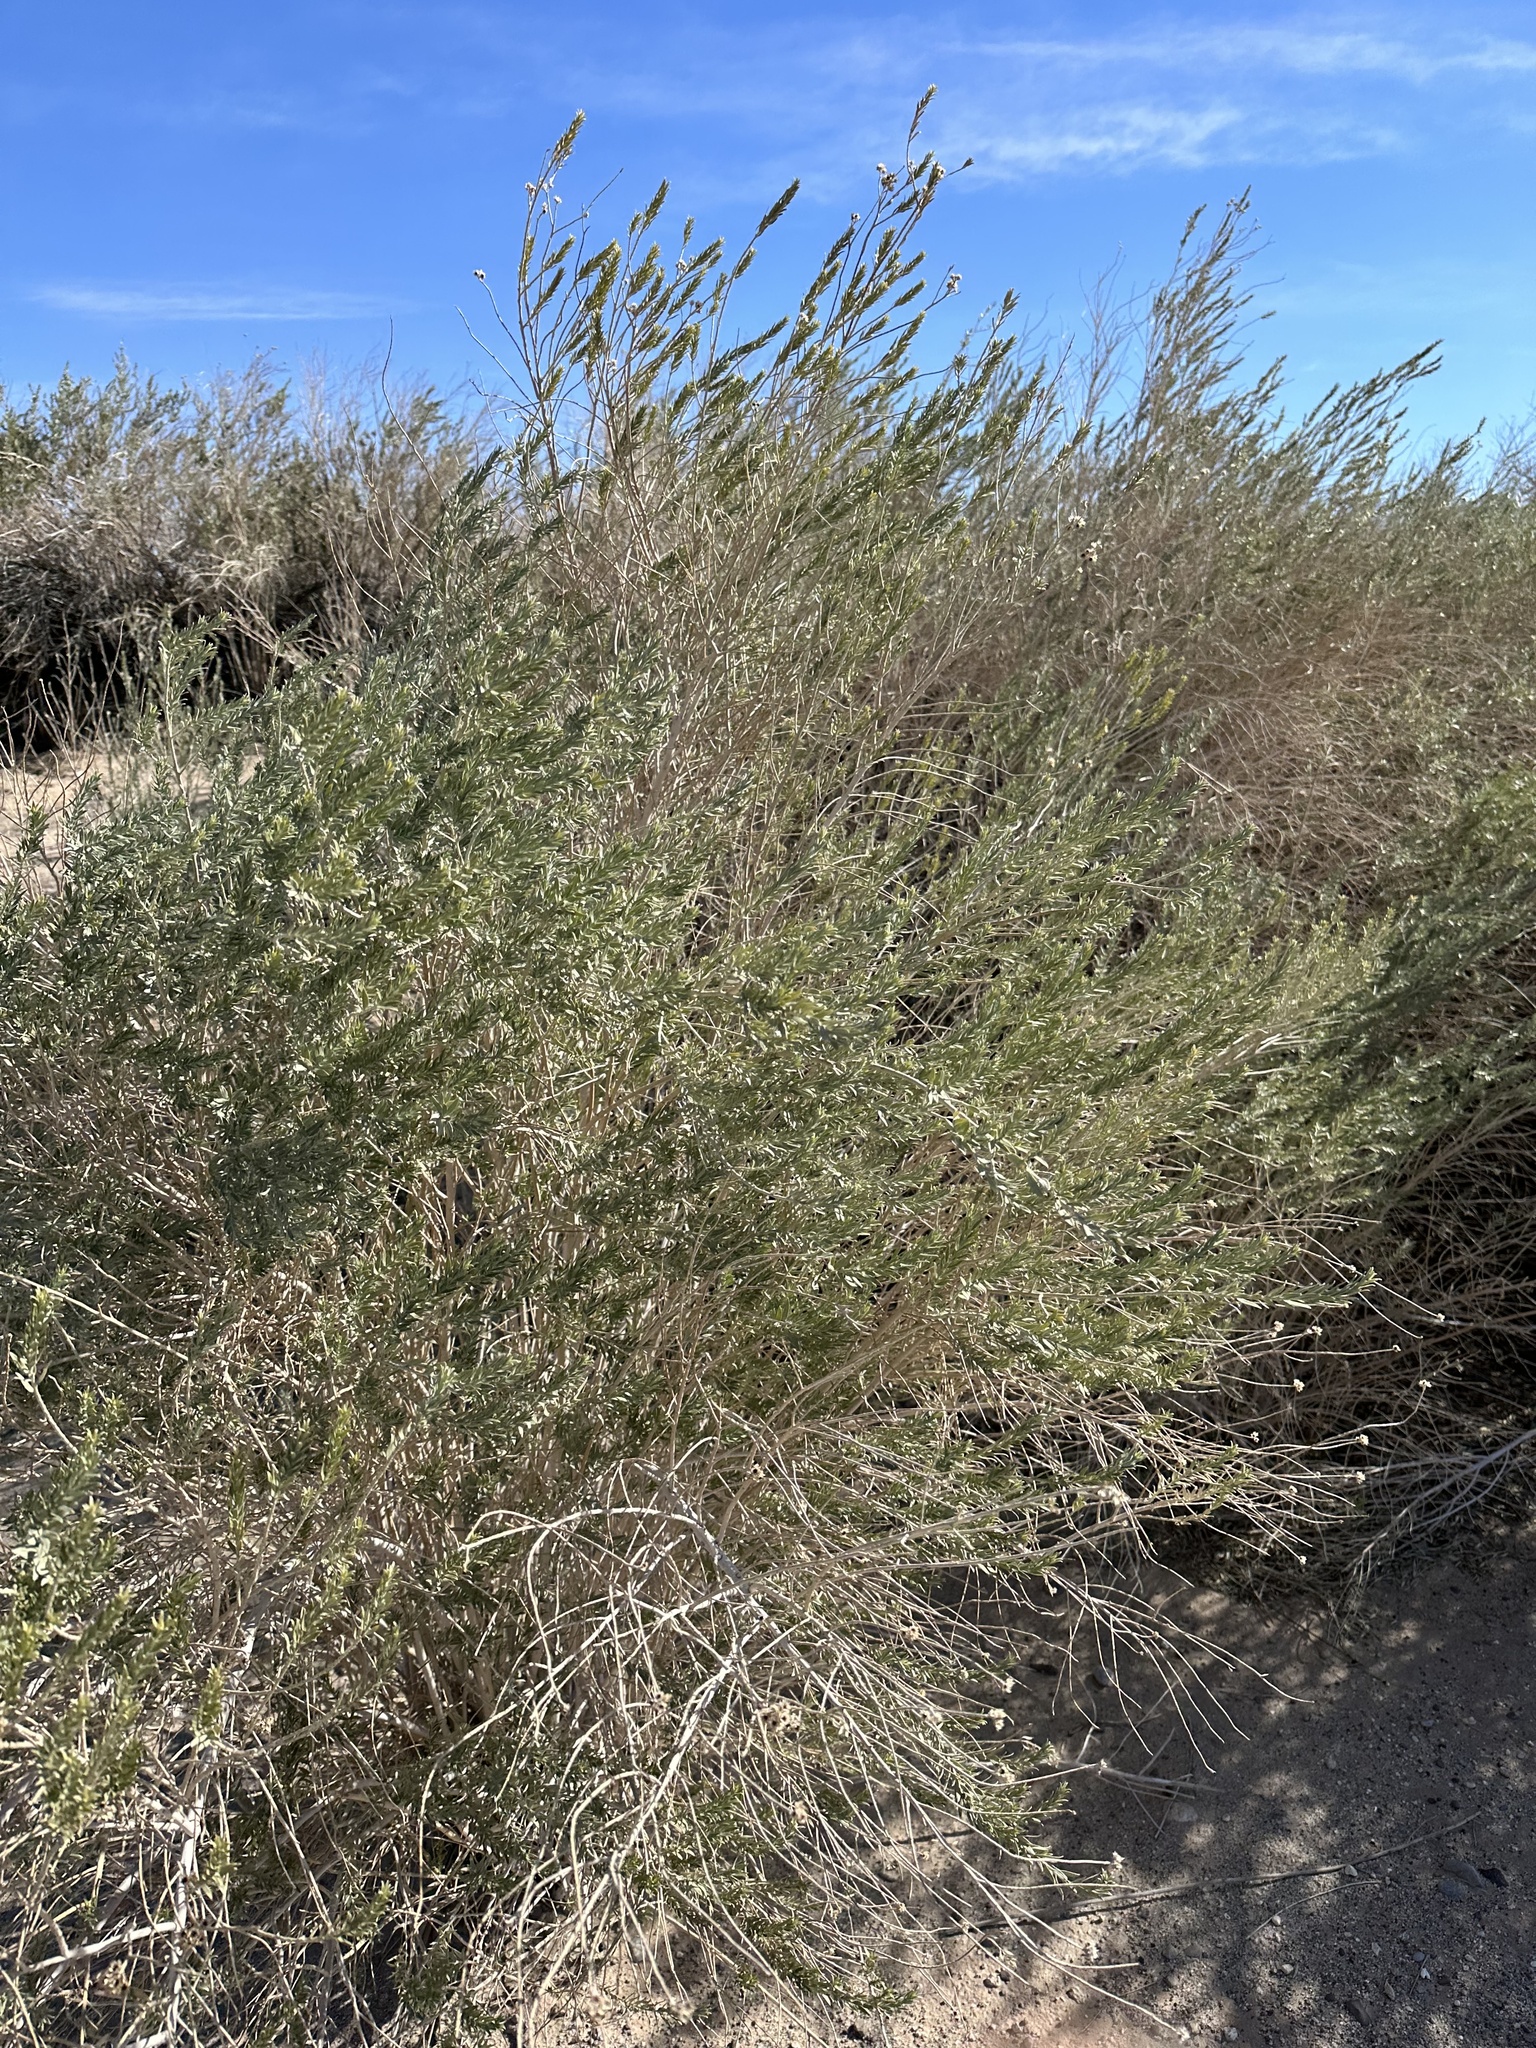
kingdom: Plantae
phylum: Tracheophyta
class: Magnoliopsida
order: Asterales
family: Asteraceae
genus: Pluchea
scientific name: Pluchea sericea
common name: Arrow-weed
